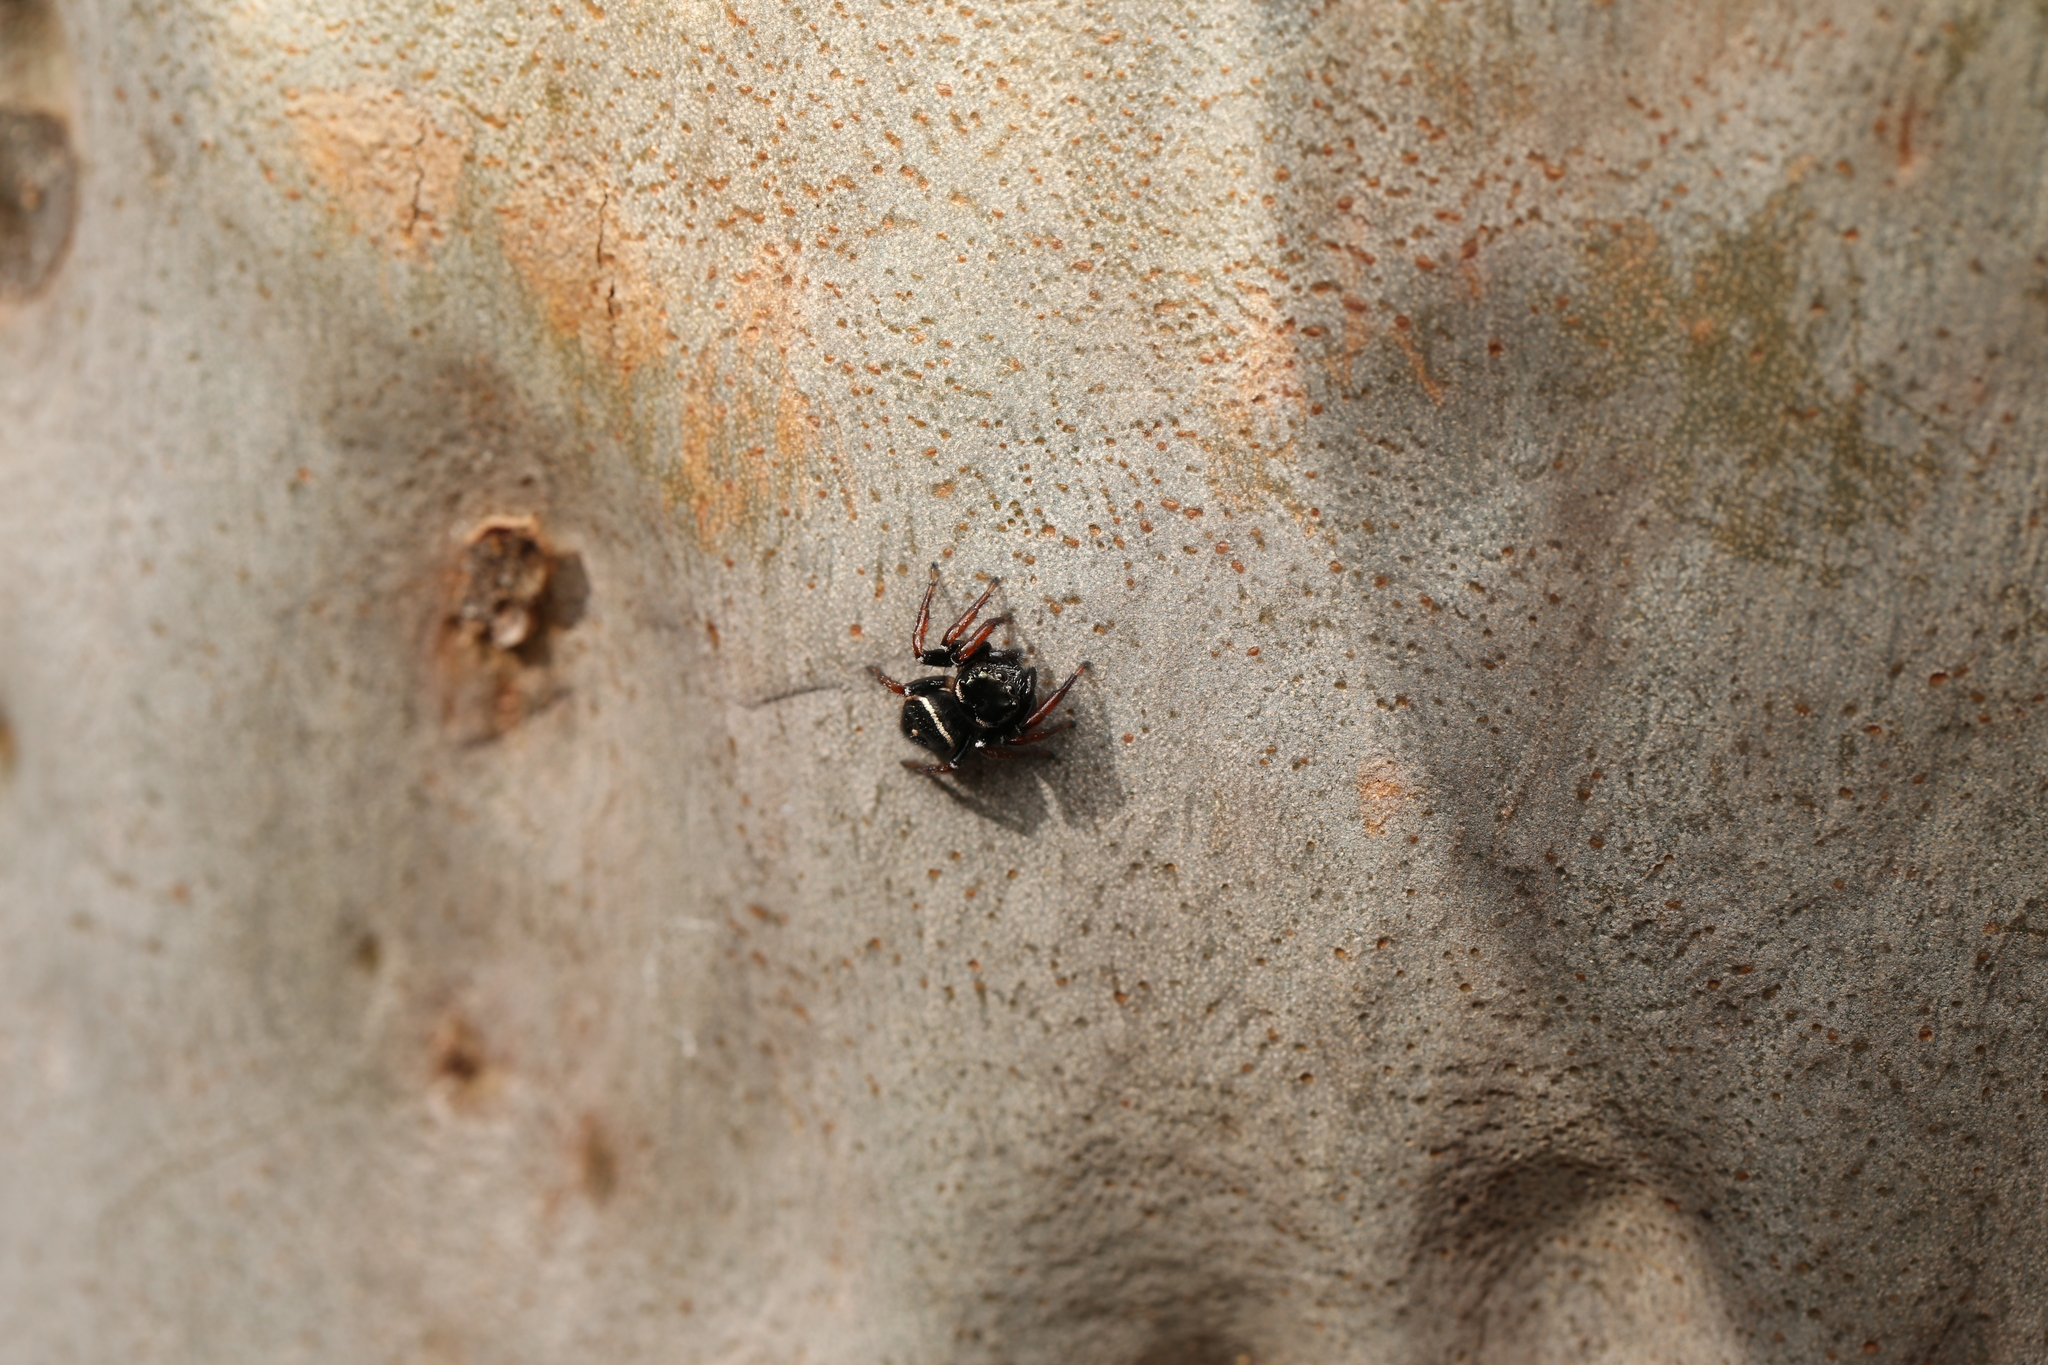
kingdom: Animalia
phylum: Arthropoda
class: Arachnida
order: Araneae
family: Salticidae
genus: Zenodorus
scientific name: Zenodorus orbiculatus
